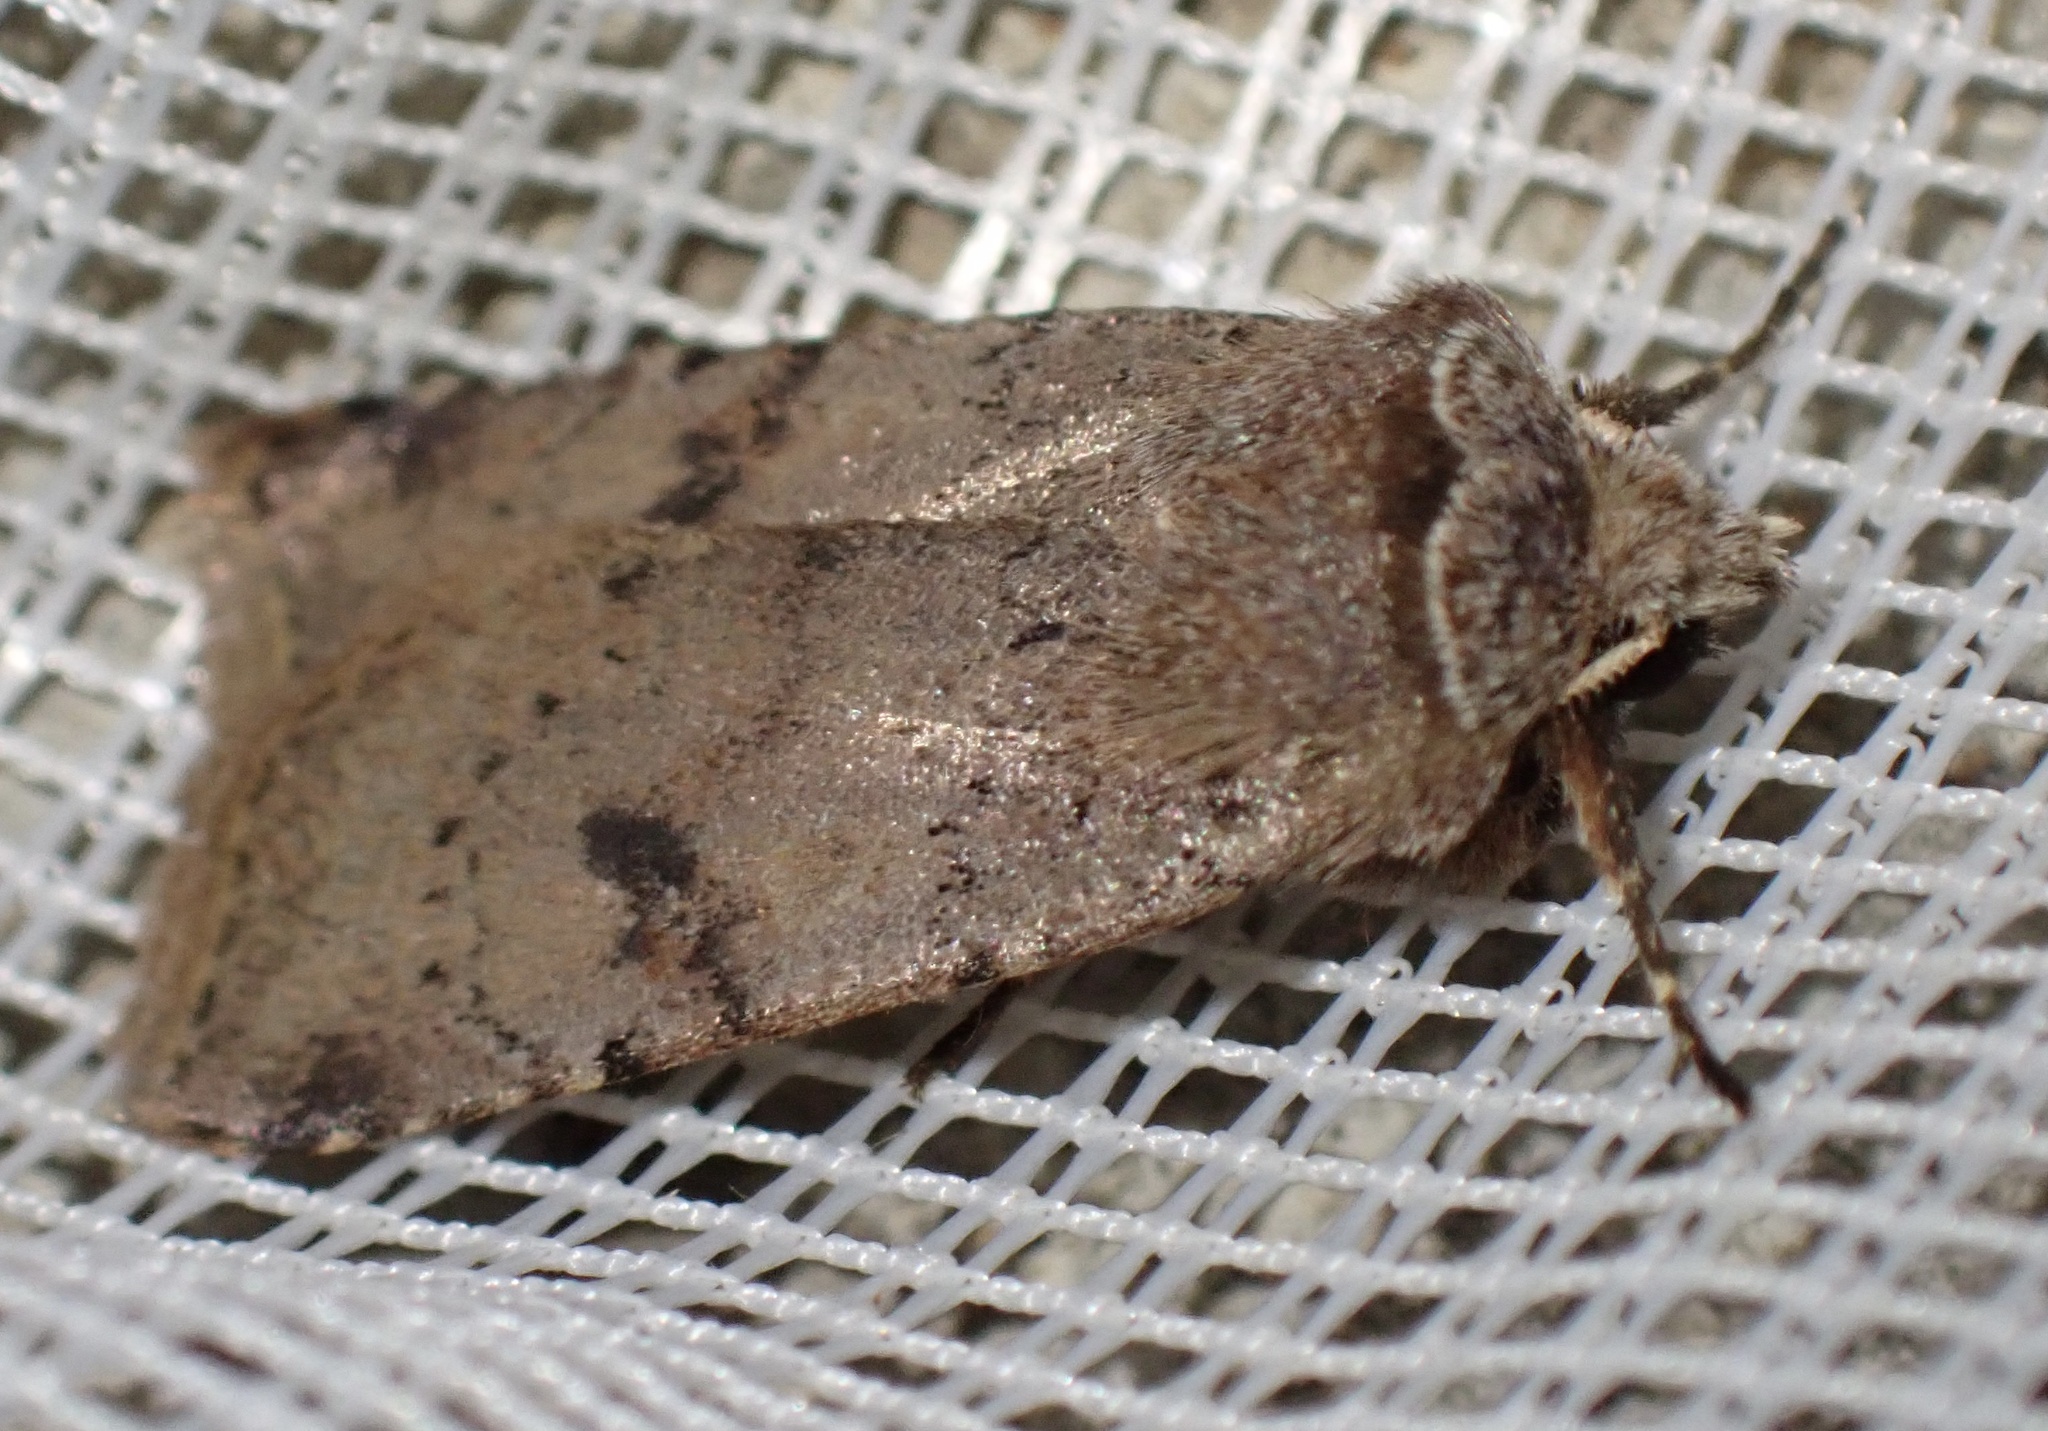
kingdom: Animalia
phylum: Arthropoda
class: Insecta
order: Lepidoptera
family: Noctuidae
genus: Cerastis
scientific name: Cerastis faceta
